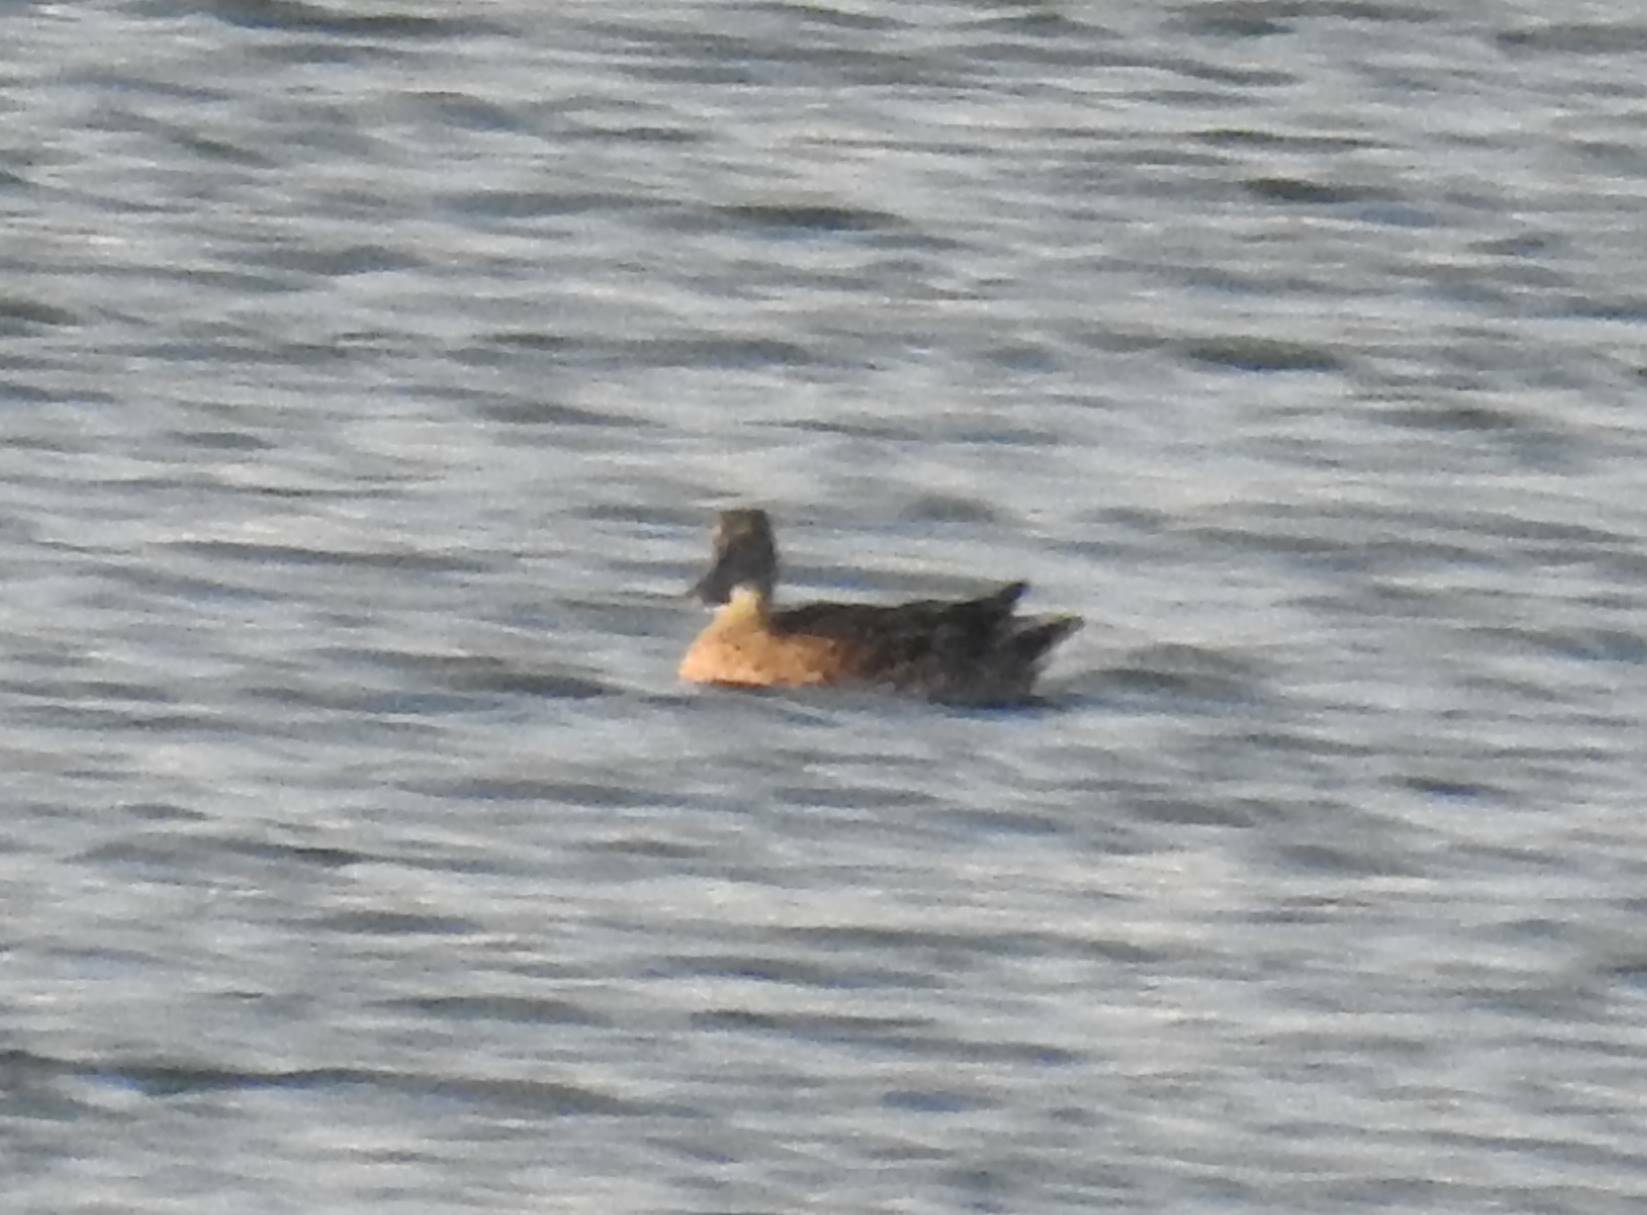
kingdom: Animalia
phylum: Chordata
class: Aves
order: Anseriformes
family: Anatidae
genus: Spatula
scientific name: Spatula clypeata
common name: Northern shoveler
